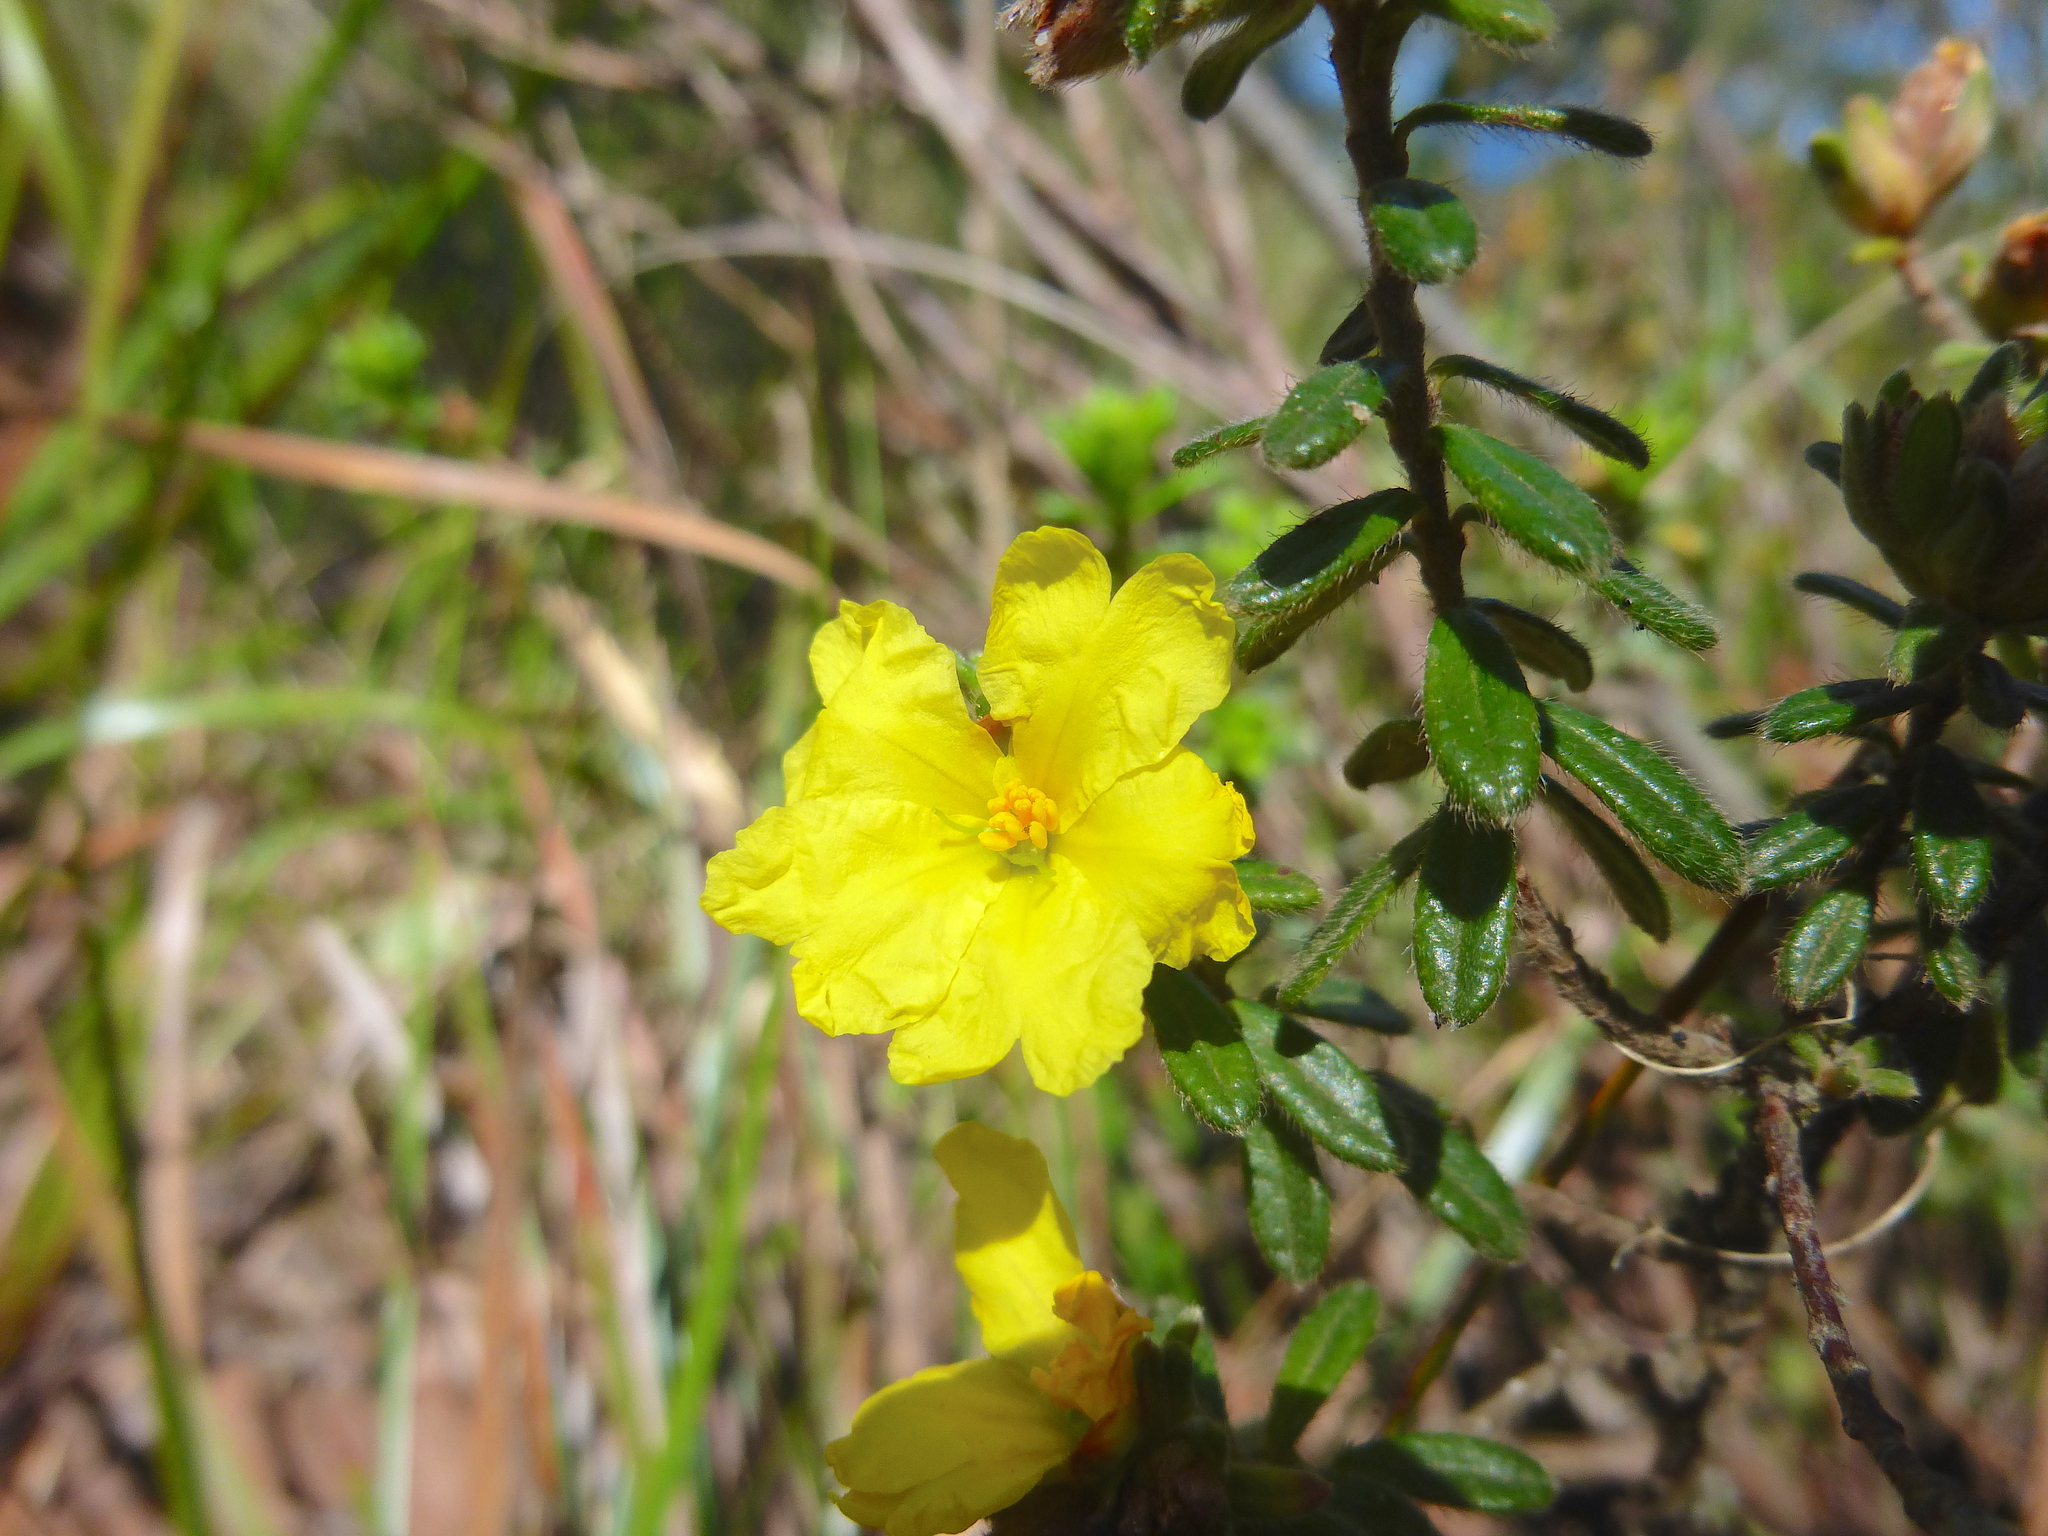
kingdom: Plantae
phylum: Tracheophyta
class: Magnoliopsida
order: Dilleniales
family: Dilleniaceae
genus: Hibbertia
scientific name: Hibbertia sericea
